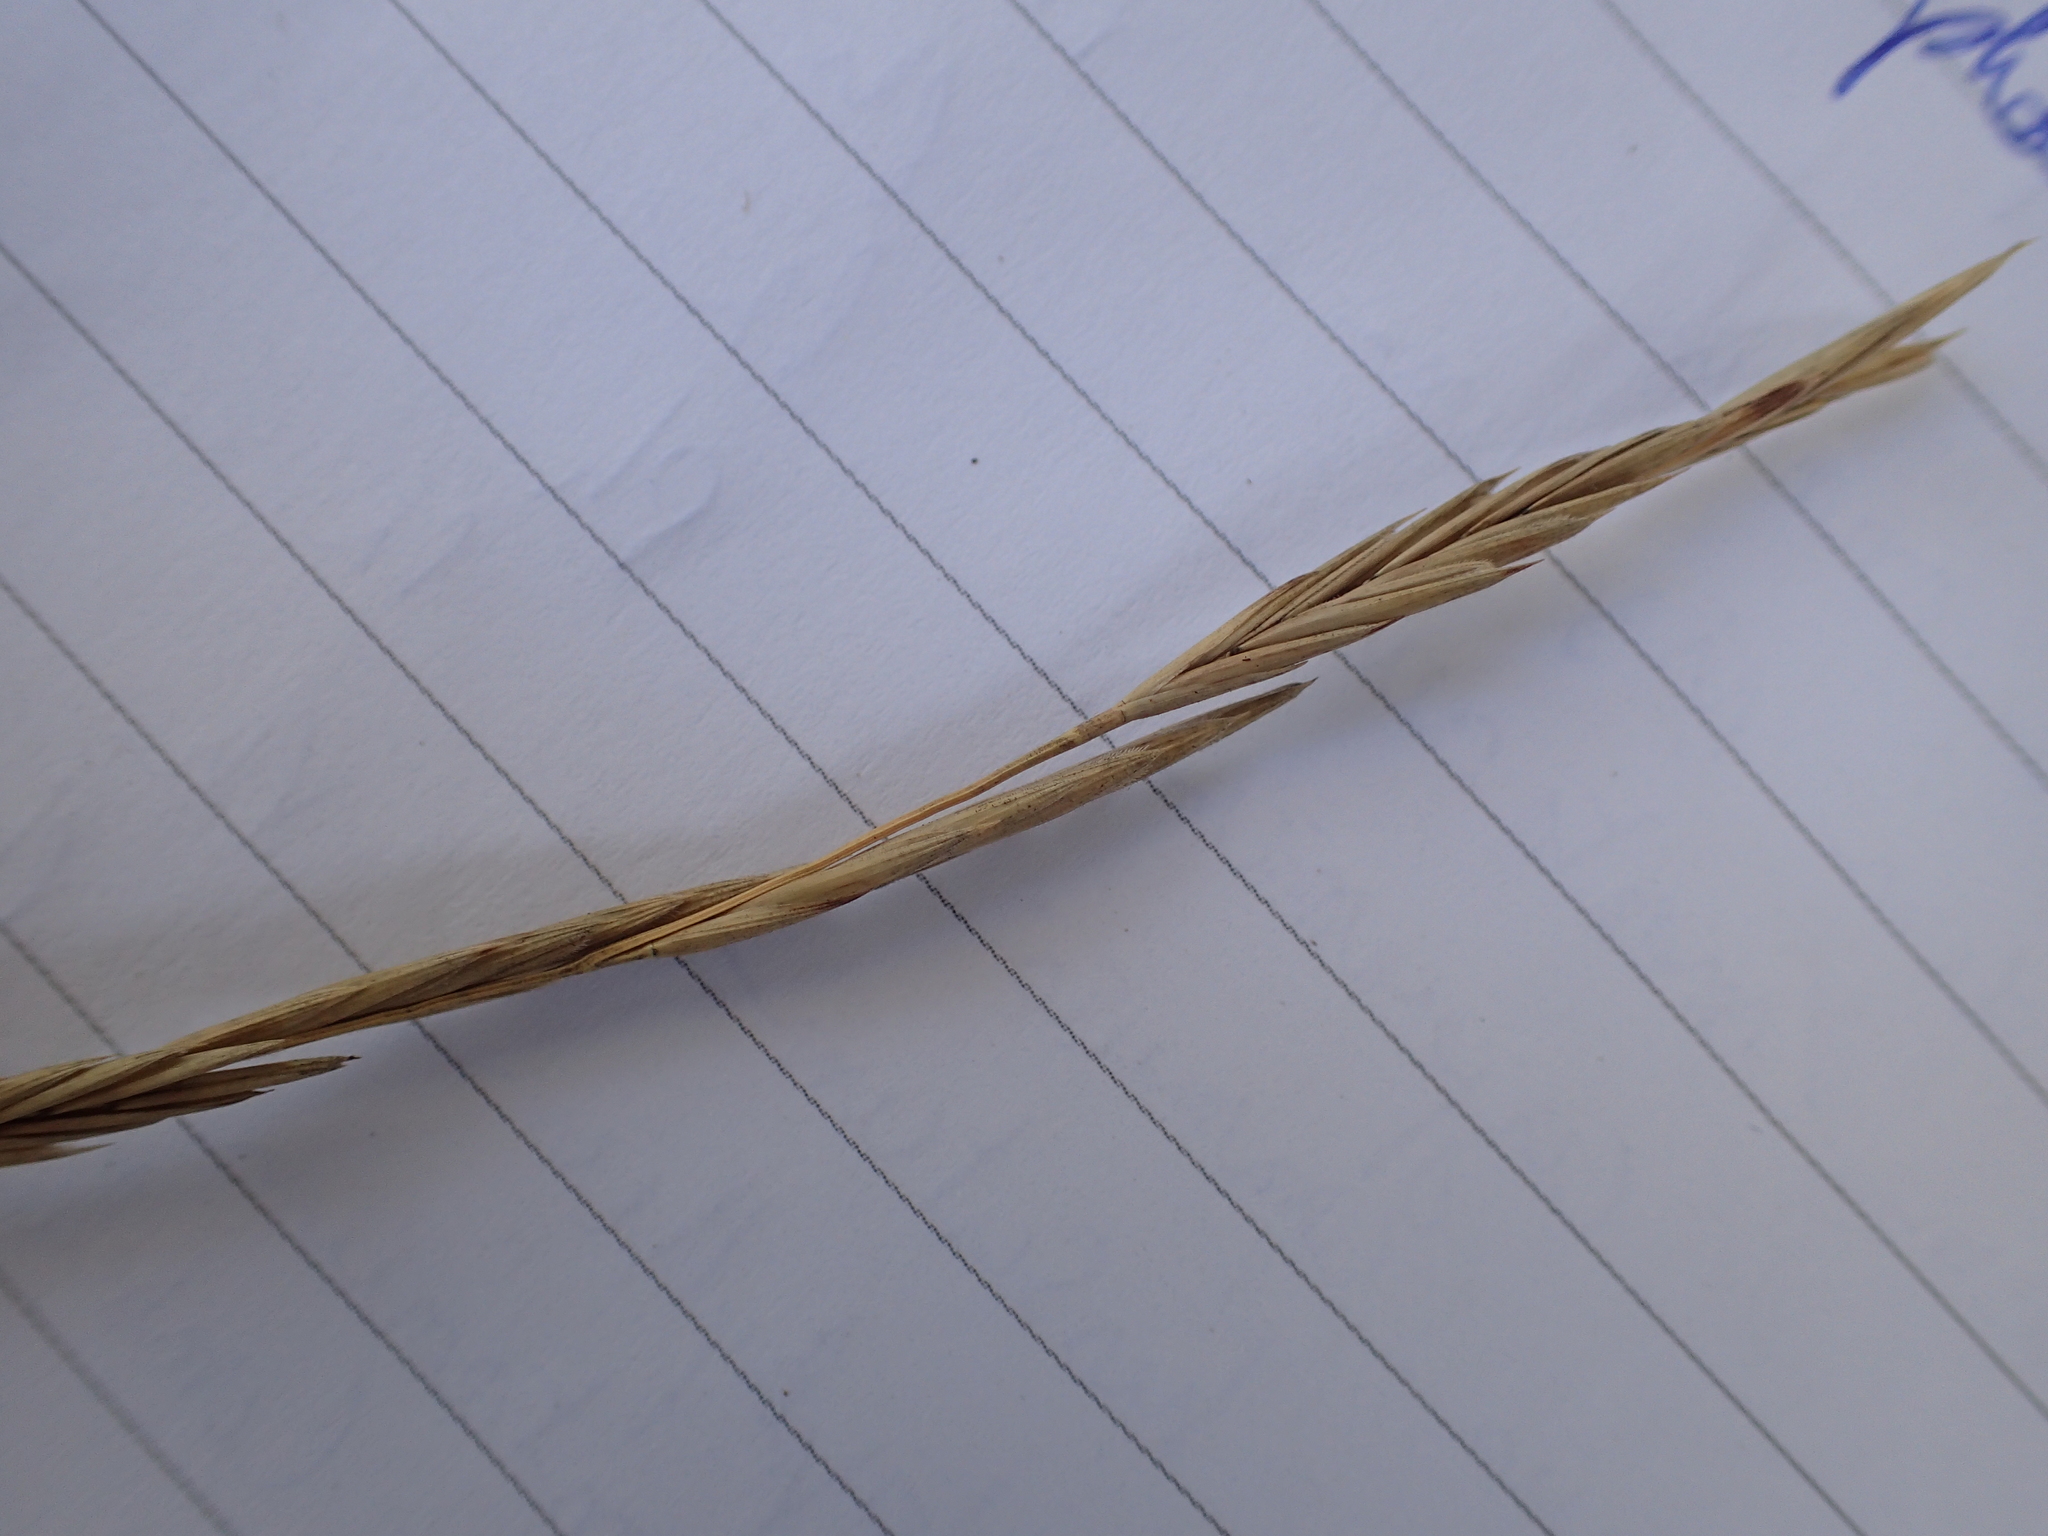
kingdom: Plantae
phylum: Tracheophyta
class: Liliopsida
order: Poales
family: Poaceae
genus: Brachypodium
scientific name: Brachypodium phoenicoides
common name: Thinleaf false brome
